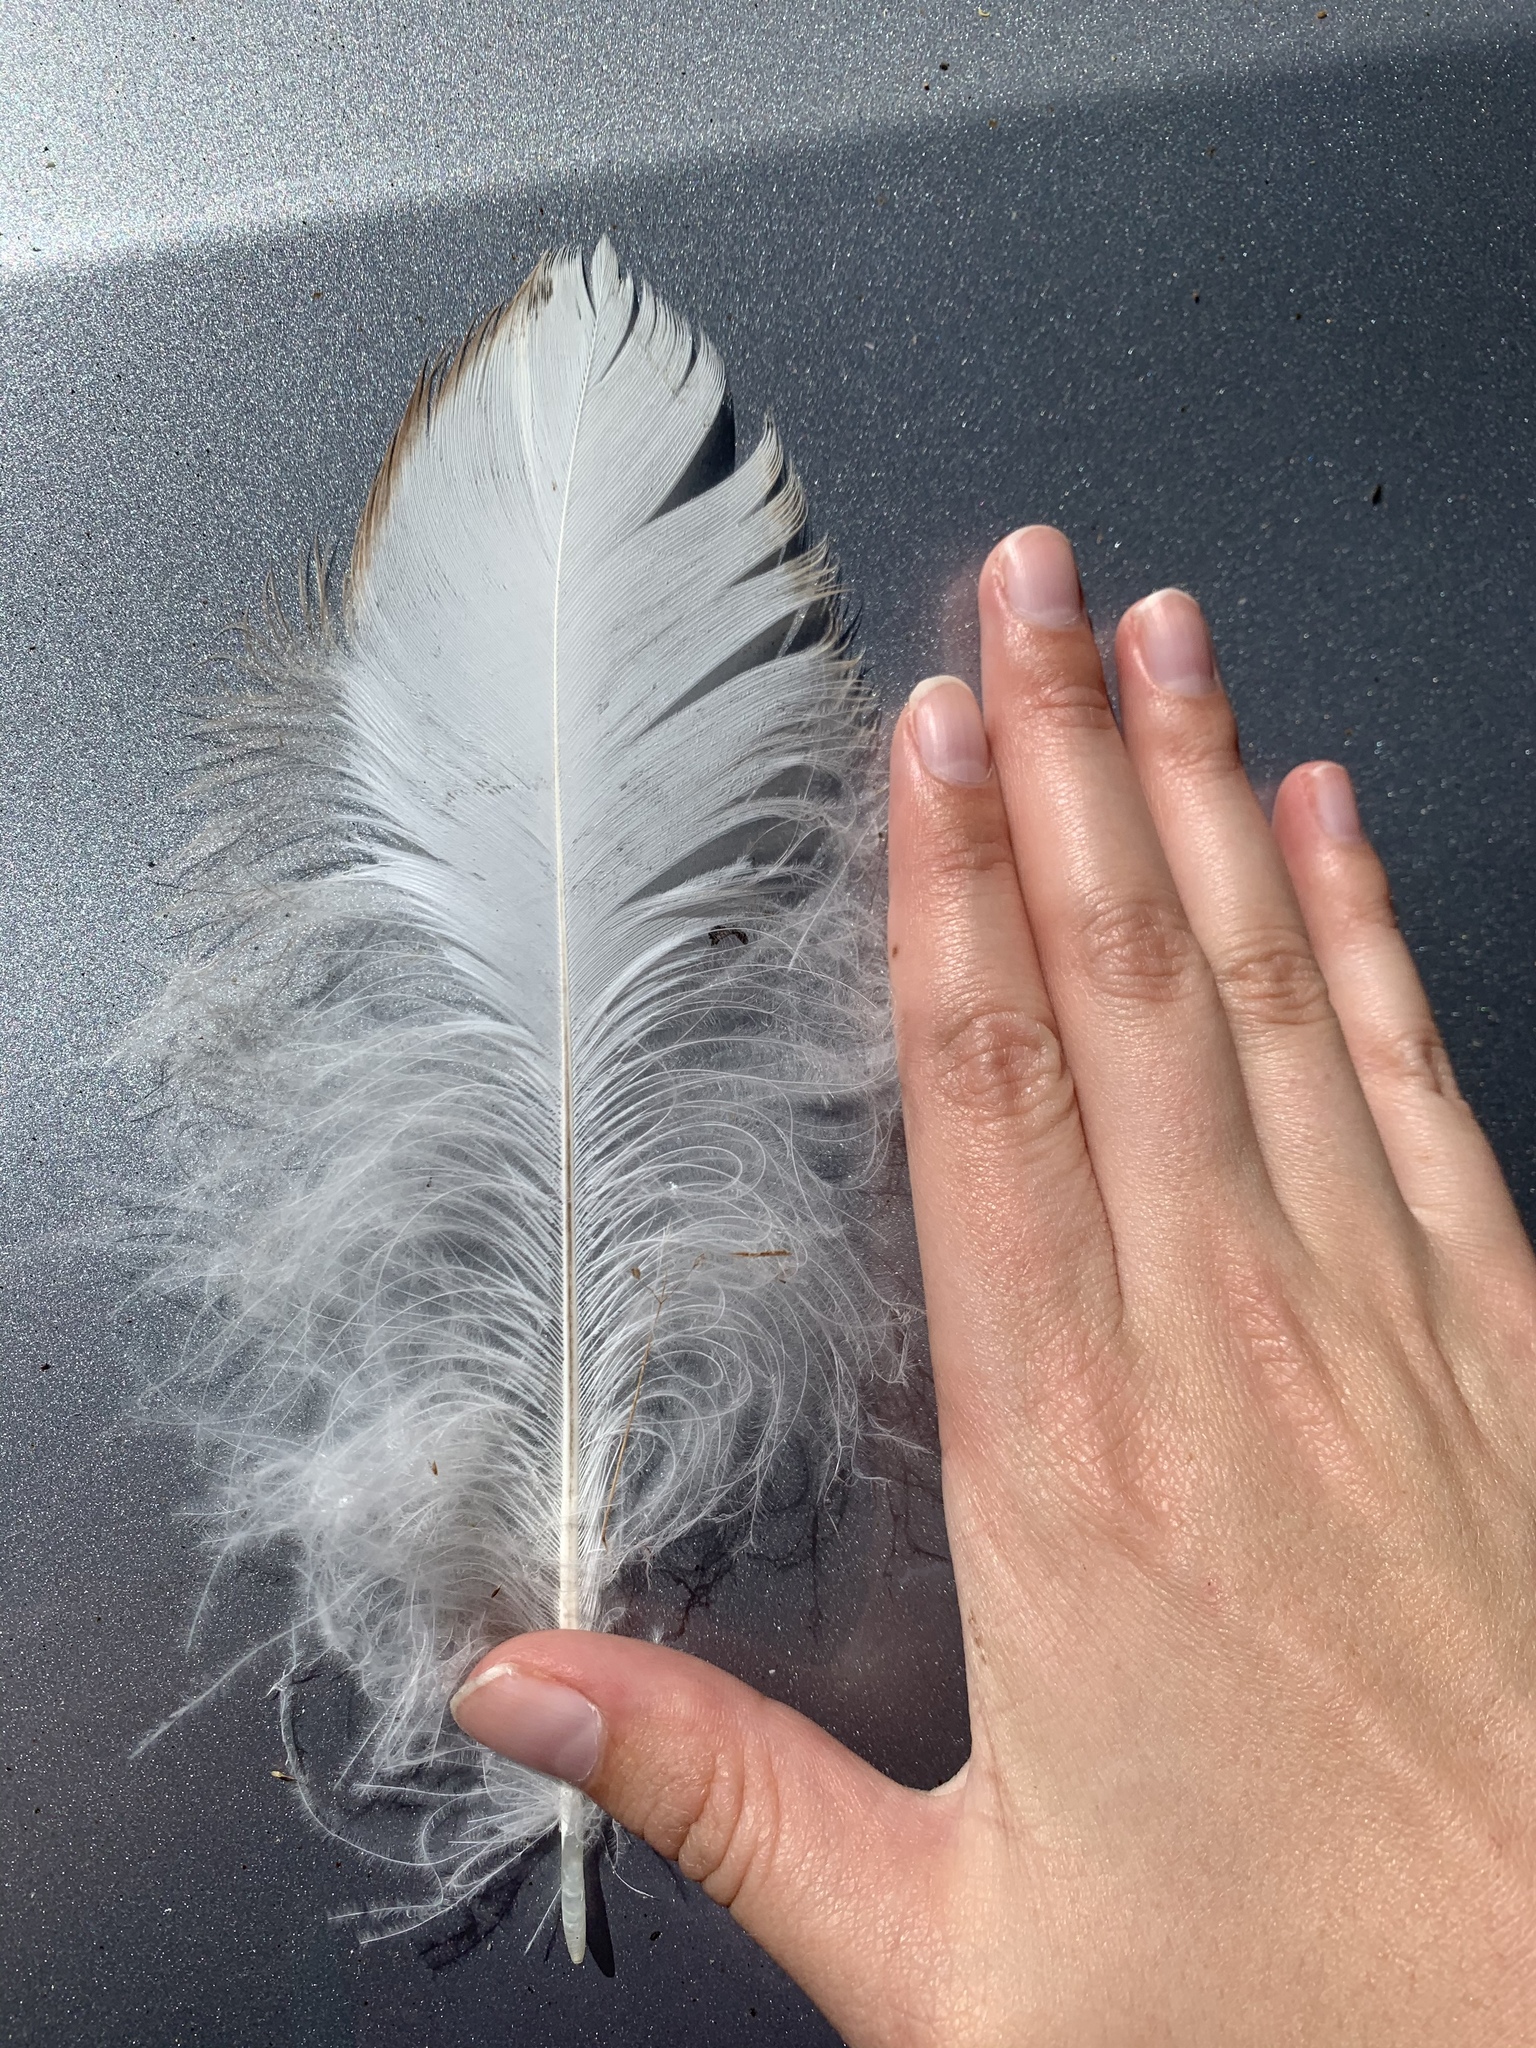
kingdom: Animalia
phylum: Chordata
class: Aves
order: Pelecaniformes
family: Ardeidae
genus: Ardea
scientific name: Ardea herodias
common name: Great blue heron
